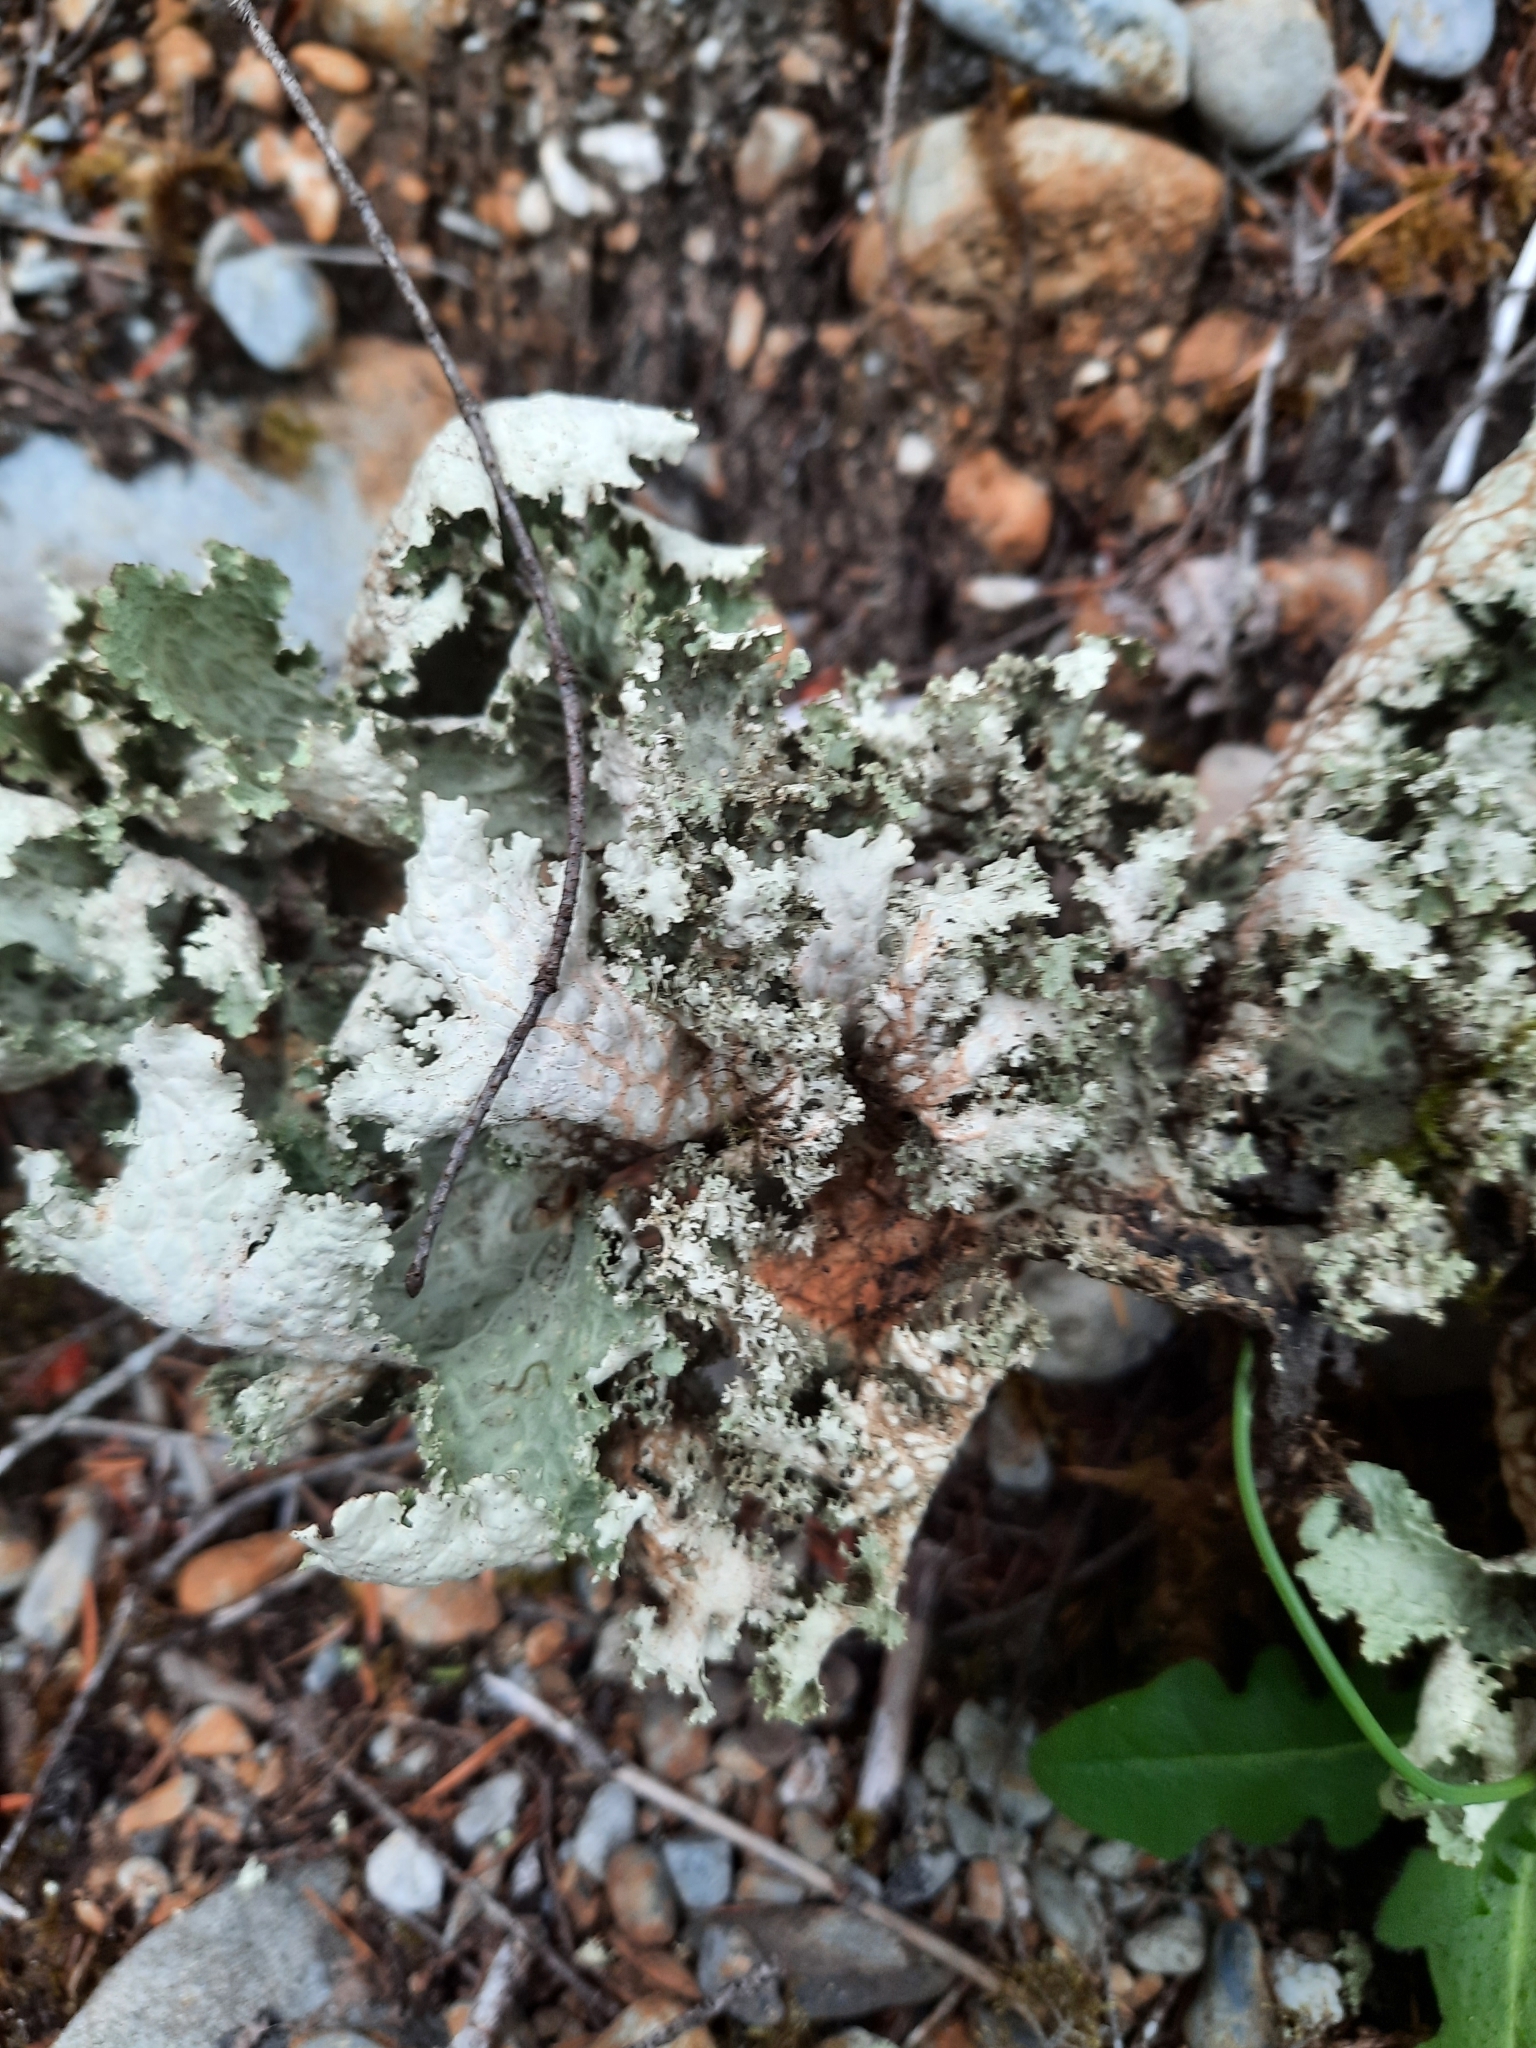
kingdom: Fungi
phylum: Ascomycota
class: Lecanoromycetes
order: Peltigerales
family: Lobariaceae
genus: Lobaria
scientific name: Lobaria oregana
